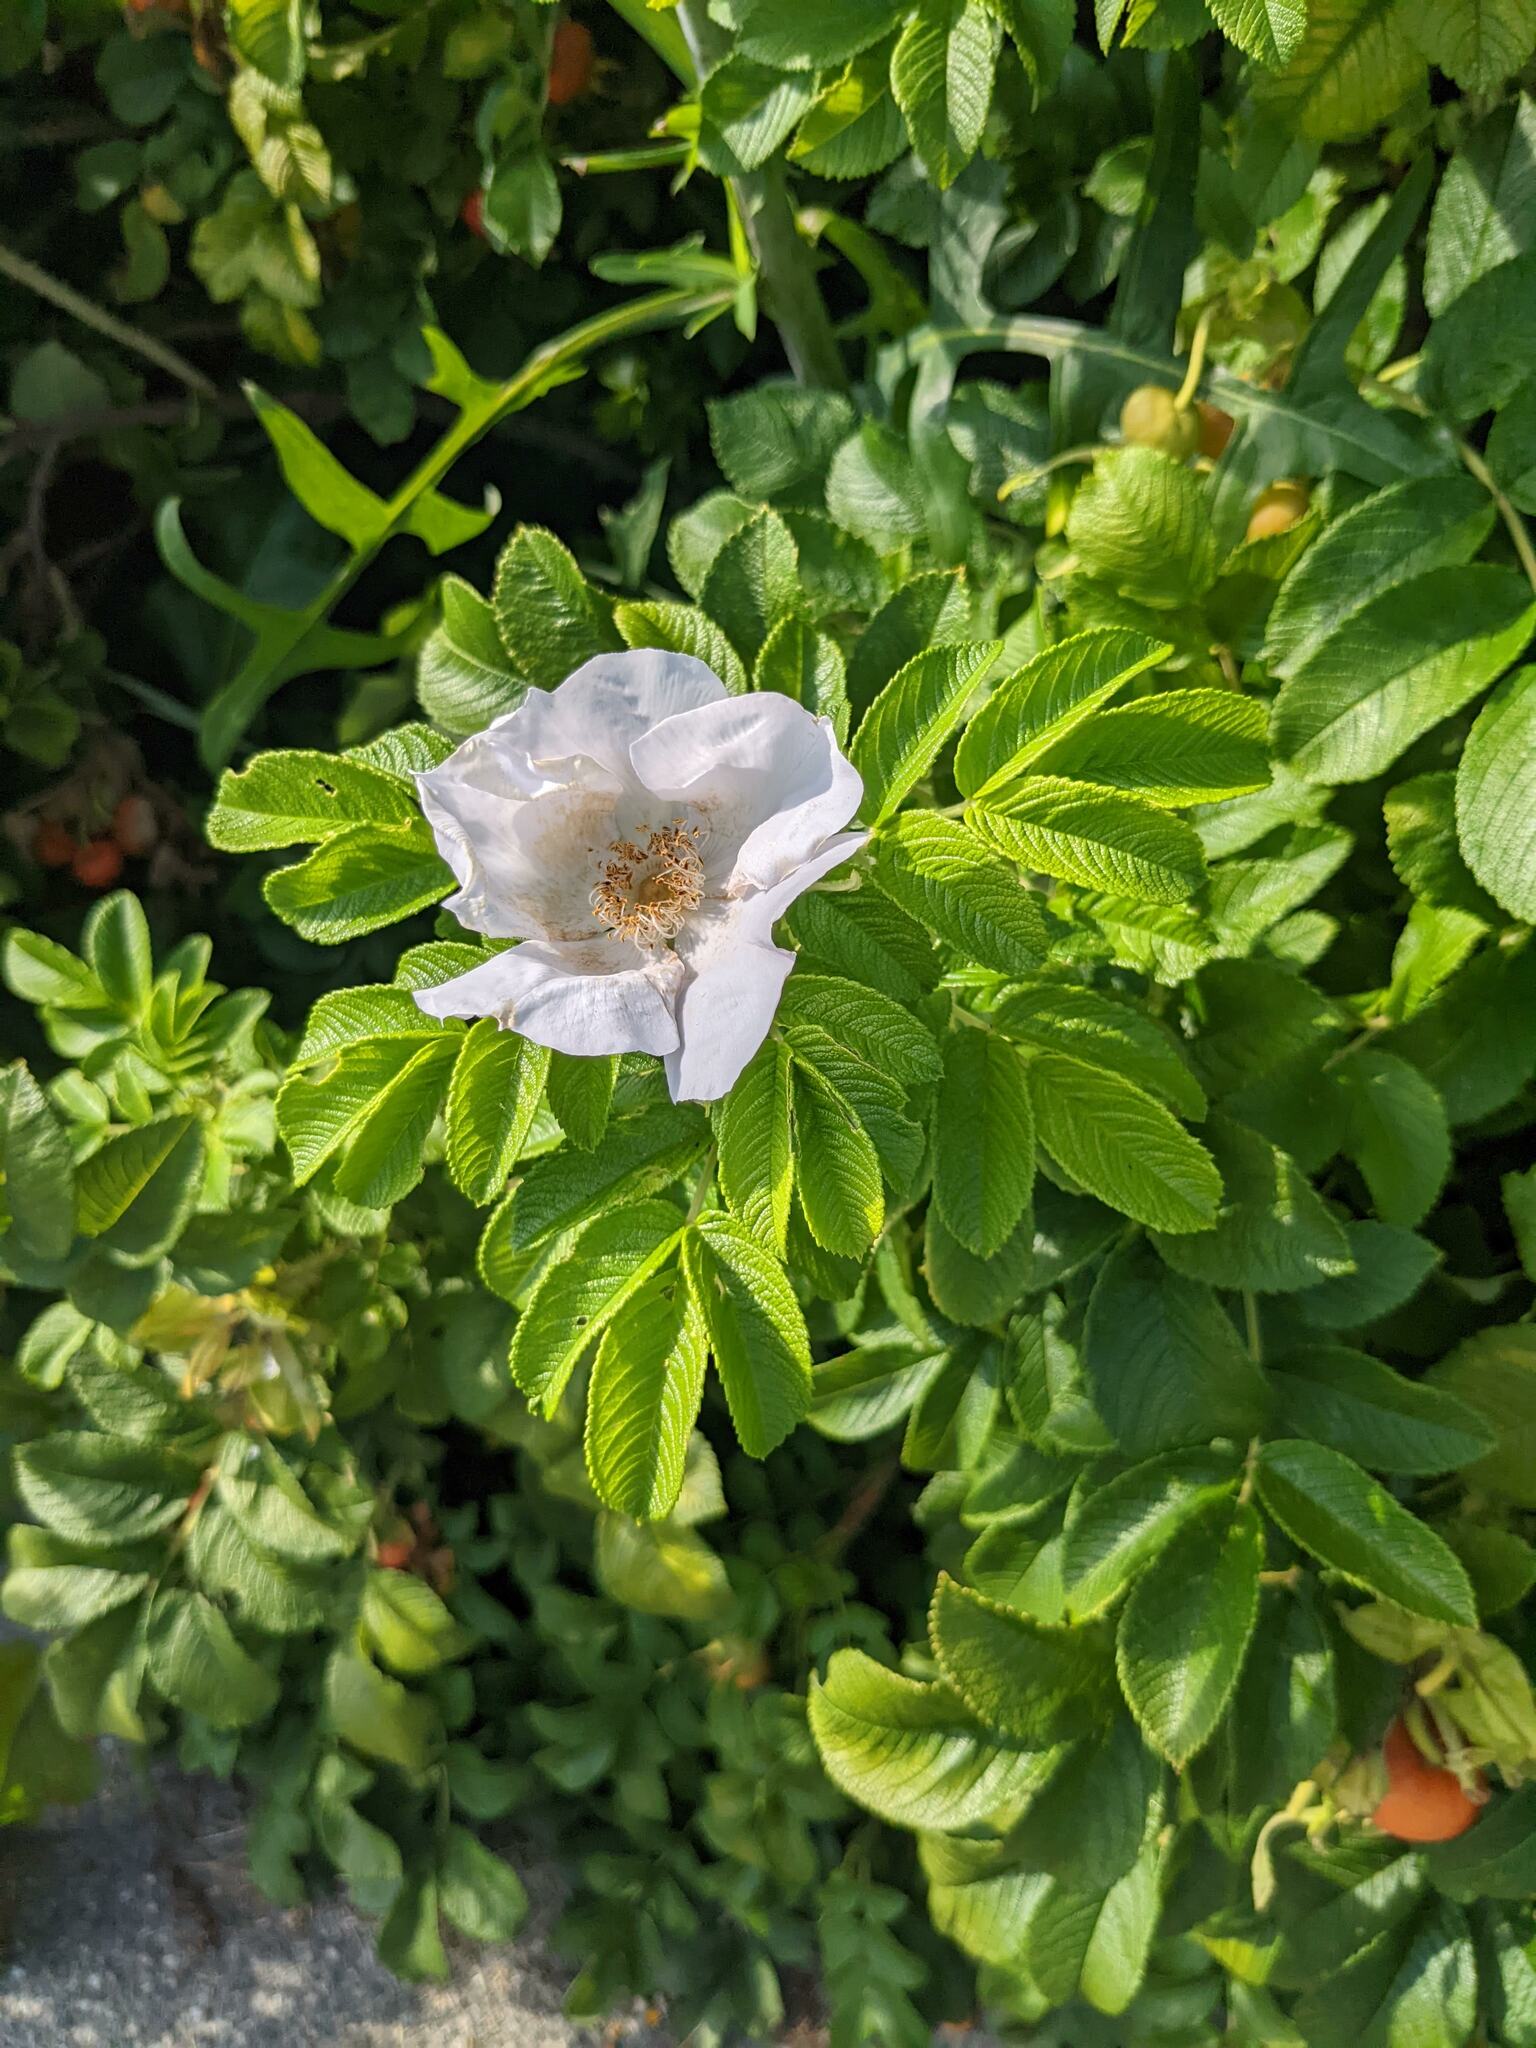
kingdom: Plantae
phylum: Tracheophyta
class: Magnoliopsida
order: Rosales
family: Rosaceae
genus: Rosa
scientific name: Rosa rugosa
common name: Japanese rose
